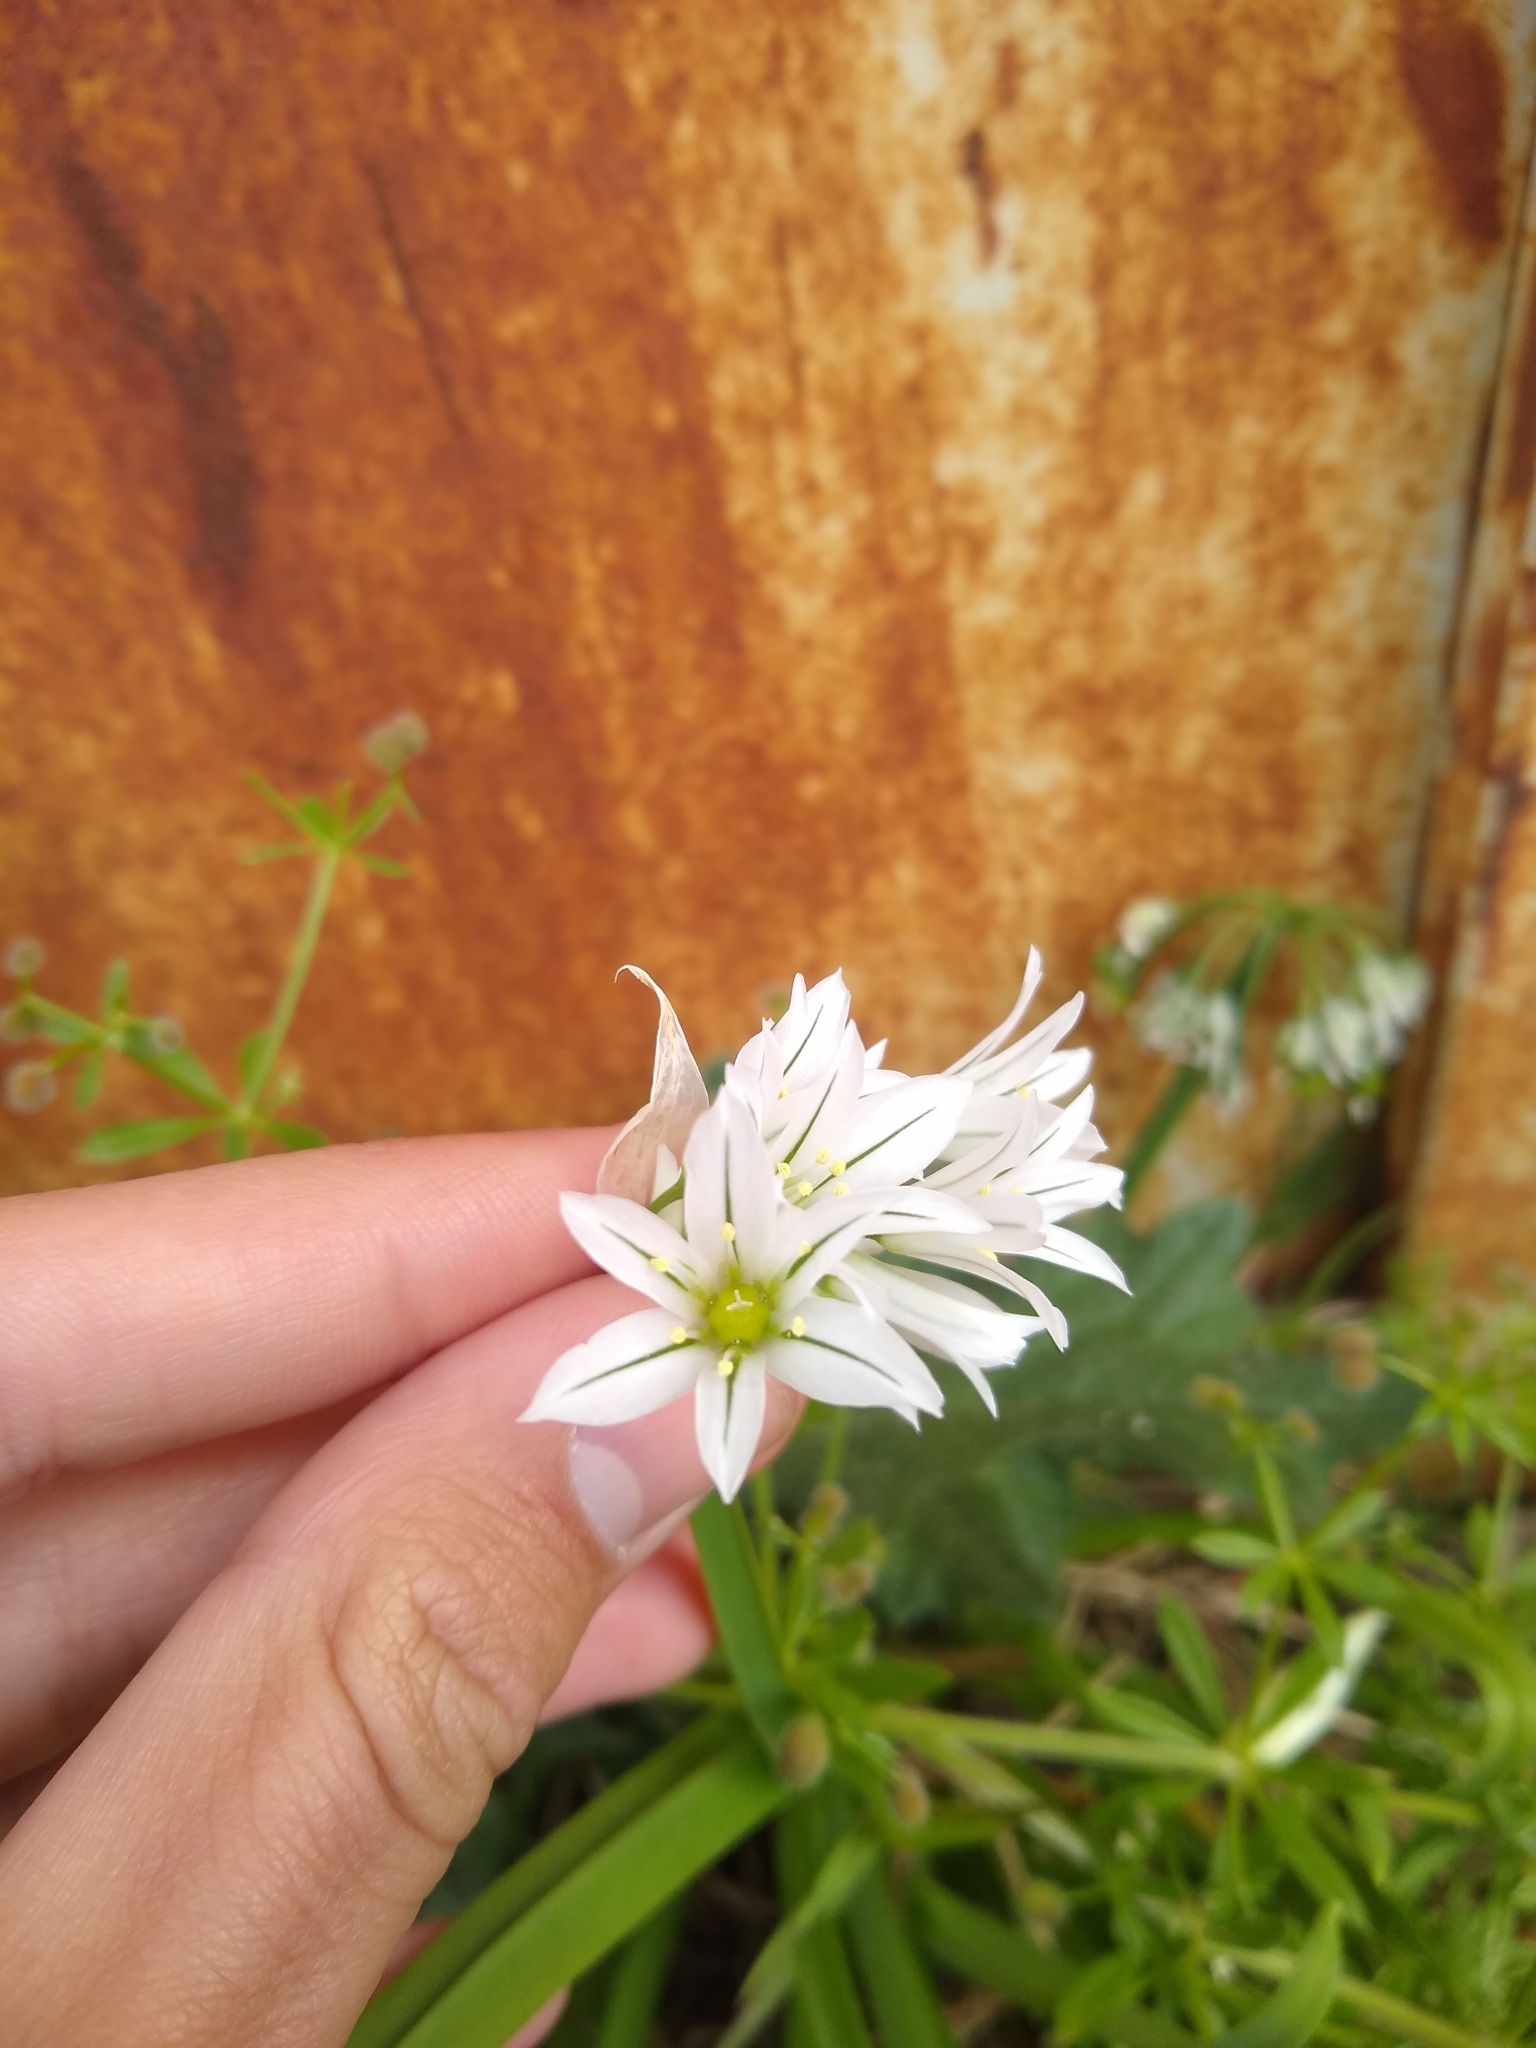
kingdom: Plantae
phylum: Tracheophyta
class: Liliopsida
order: Asparagales
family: Amaryllidaceae
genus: Allium
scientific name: Allium triquetrum
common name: Three-cornered garlic
